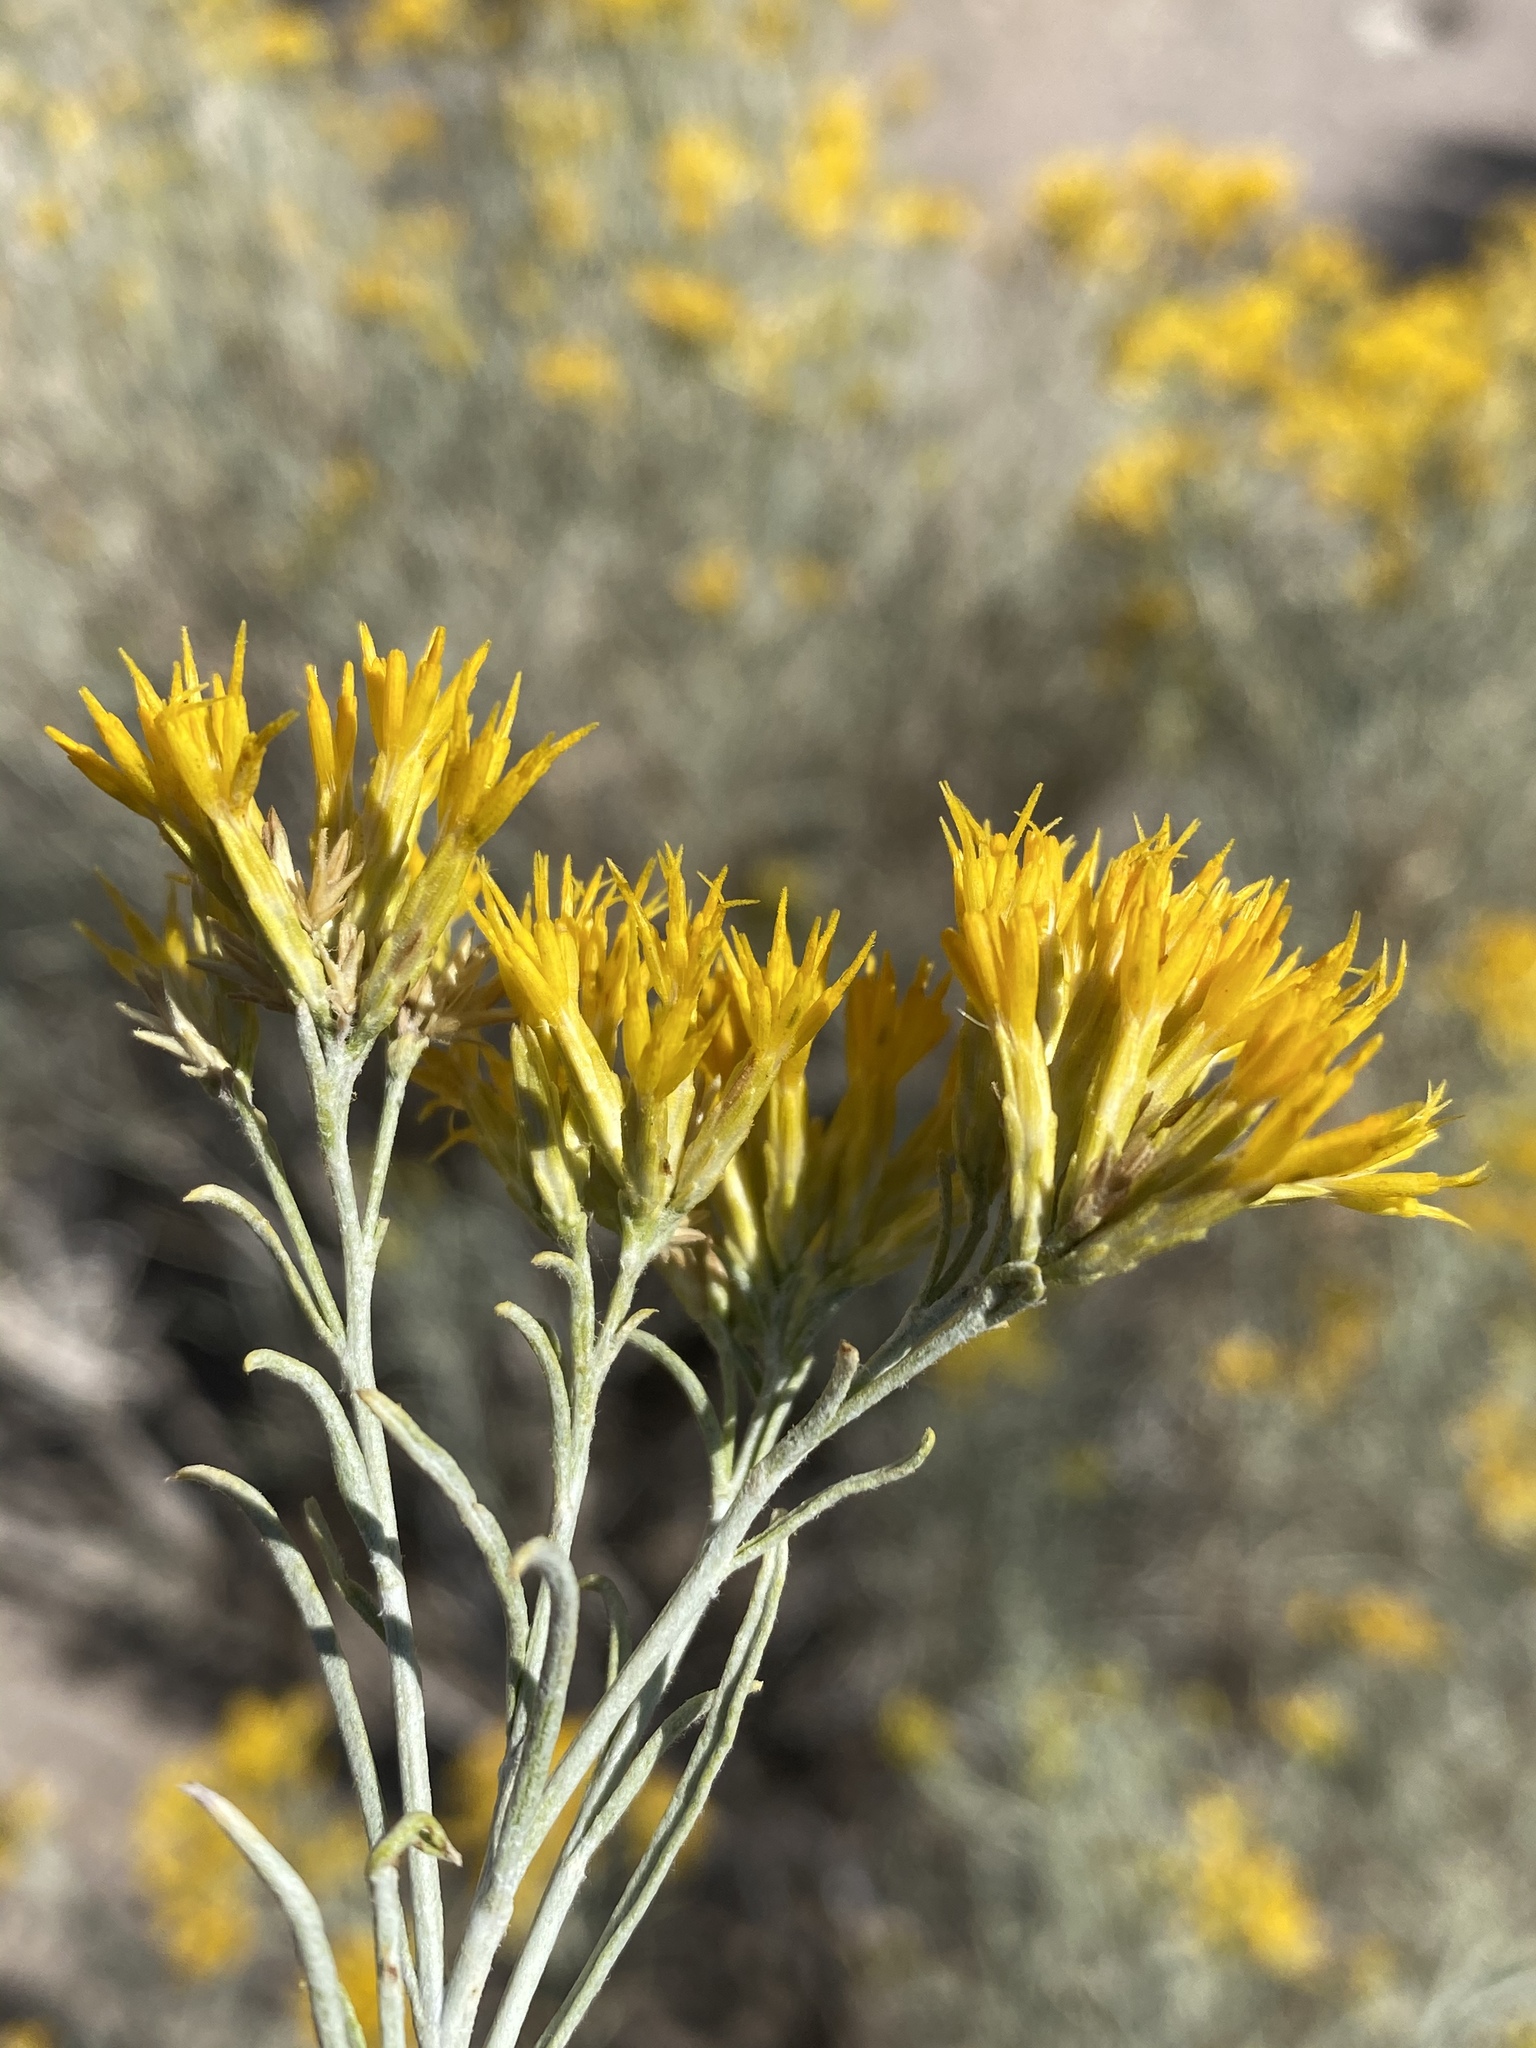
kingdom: Plantae
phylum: Tracheophyta
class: Magnoliopsida
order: Asterales
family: Asteraceae
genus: Ericameria
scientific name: Ericameria nauseosa
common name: Rubber rabbitbrush
